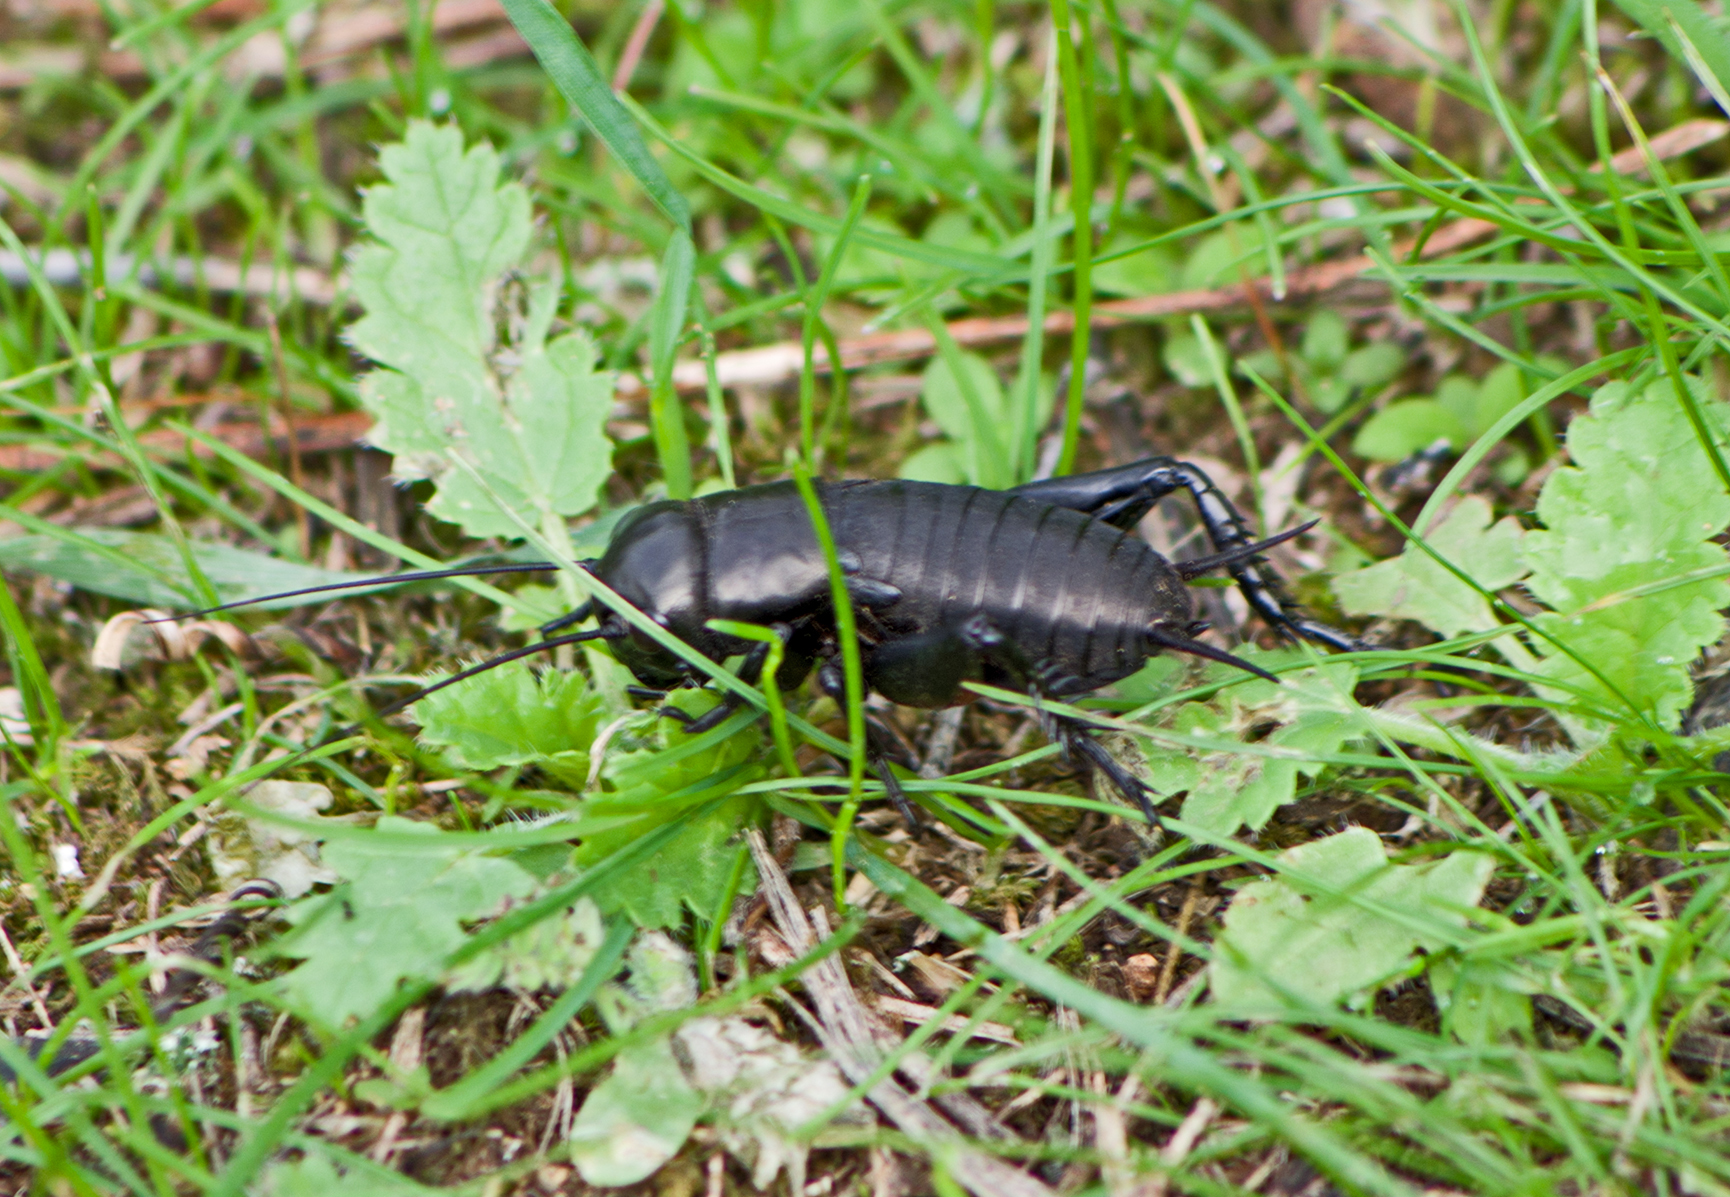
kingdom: Animalia
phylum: Arthropoda
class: Insecta
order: Orthoptera
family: Gryllidae
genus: Gryllus
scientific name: Gryllus campestris
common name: Field cricket
